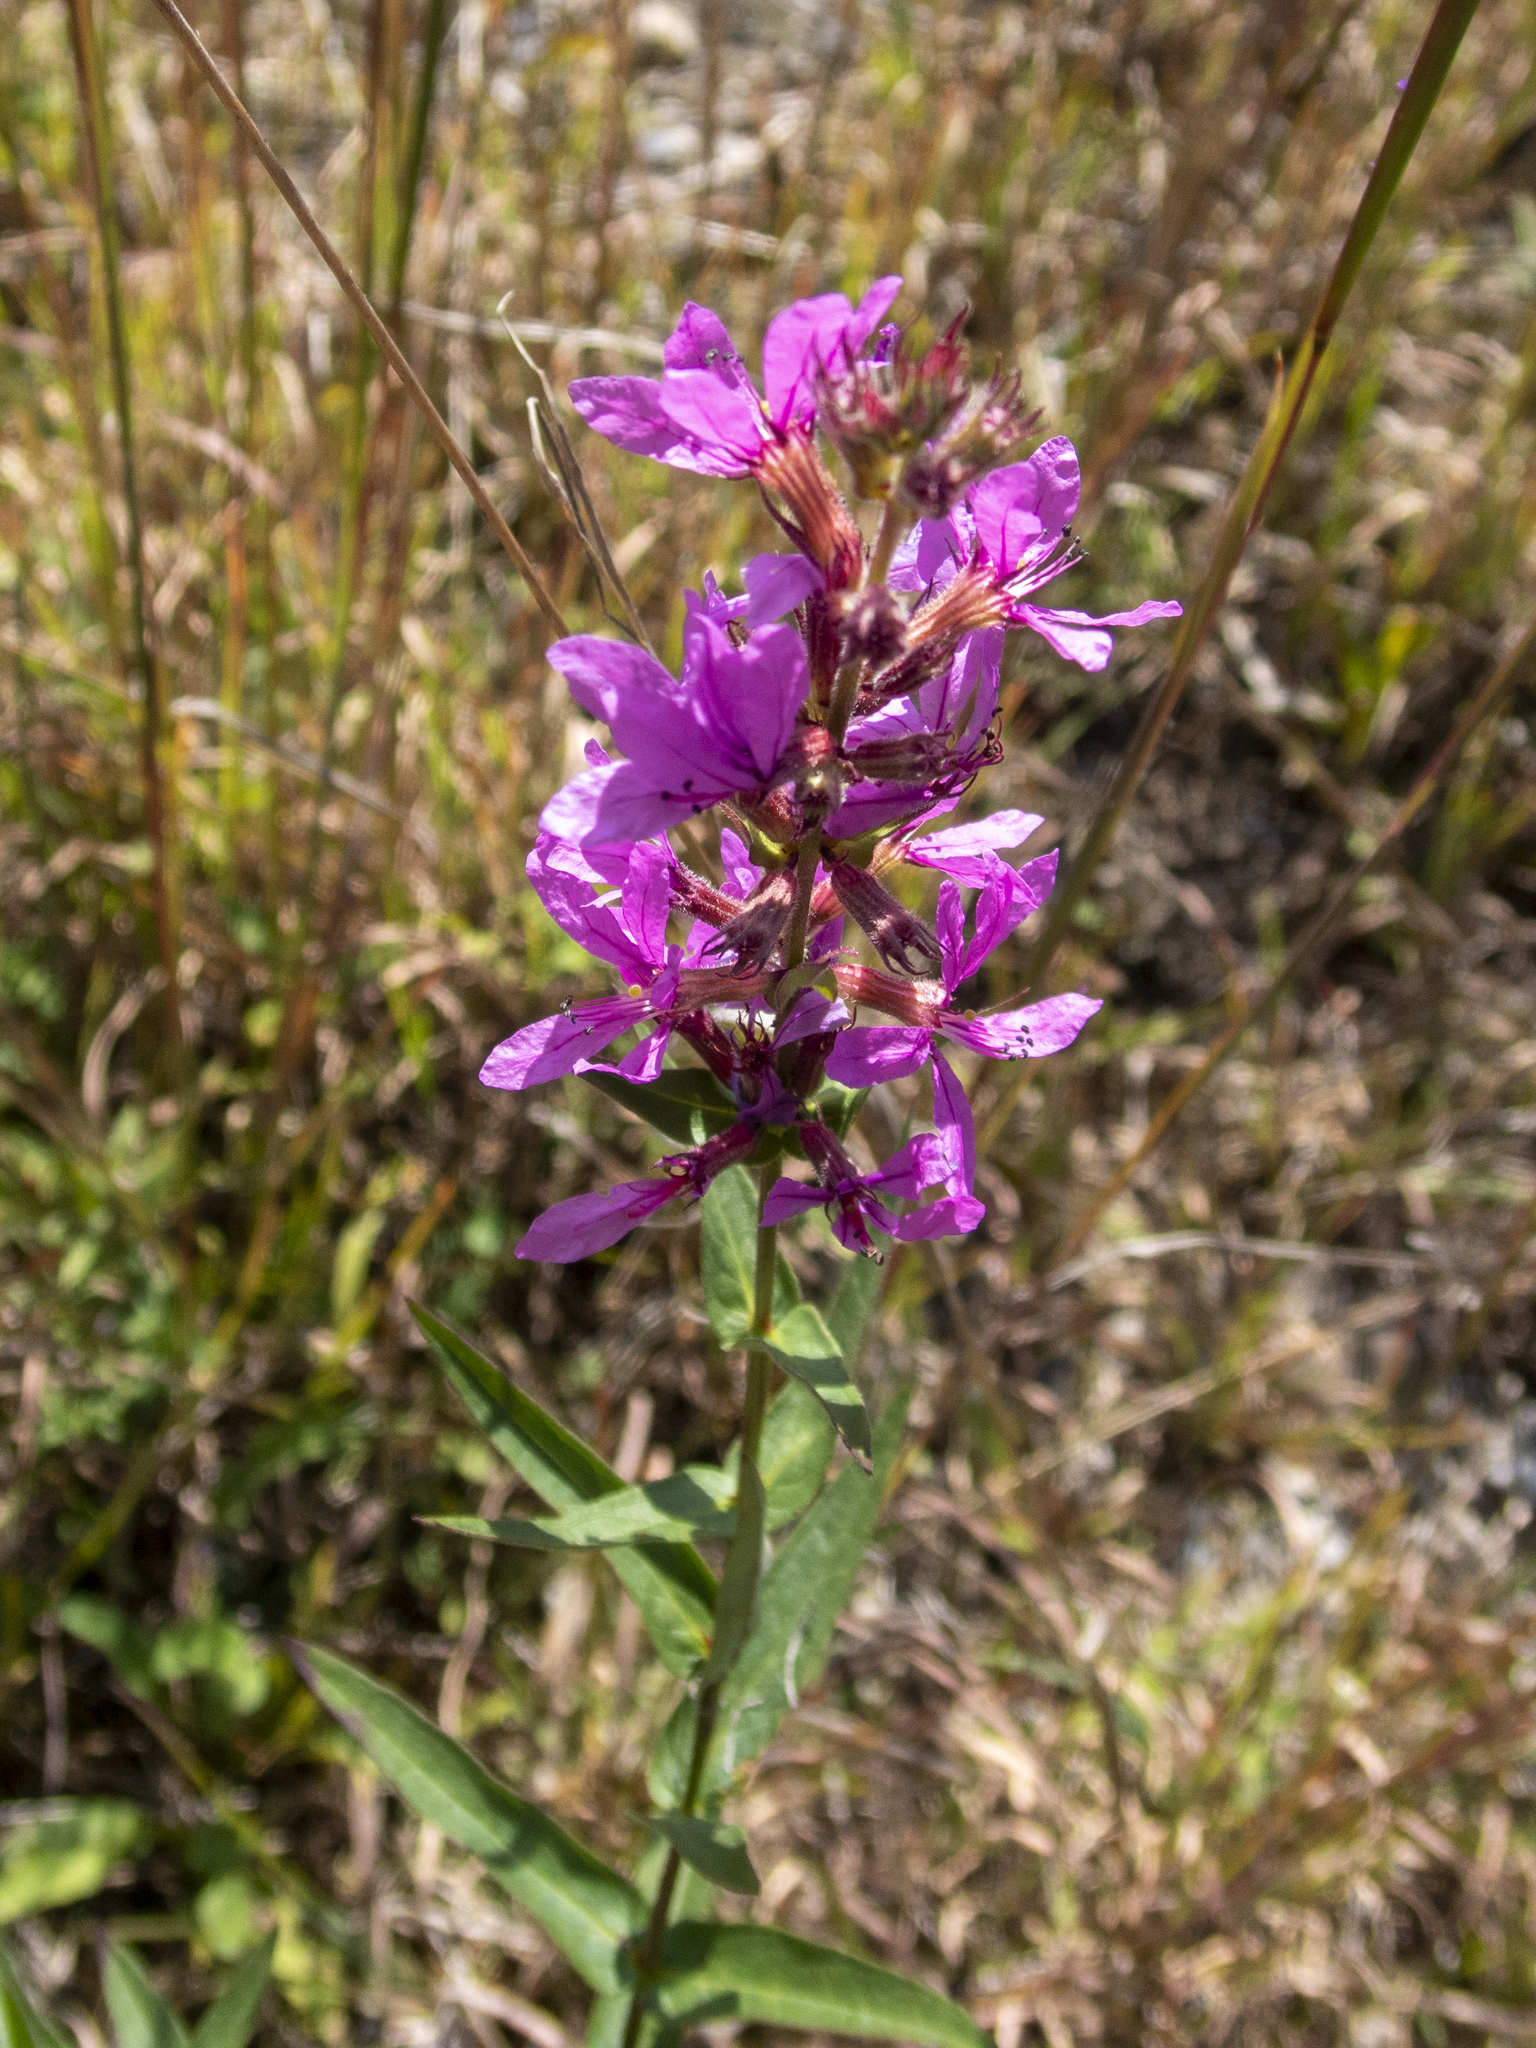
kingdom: Plantae
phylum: Tracheophyta
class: Magnoliopsida
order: Myrtales
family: Lythraceae
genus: Lythrum
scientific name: Lythrum salicaria
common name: Purple loosestrife
